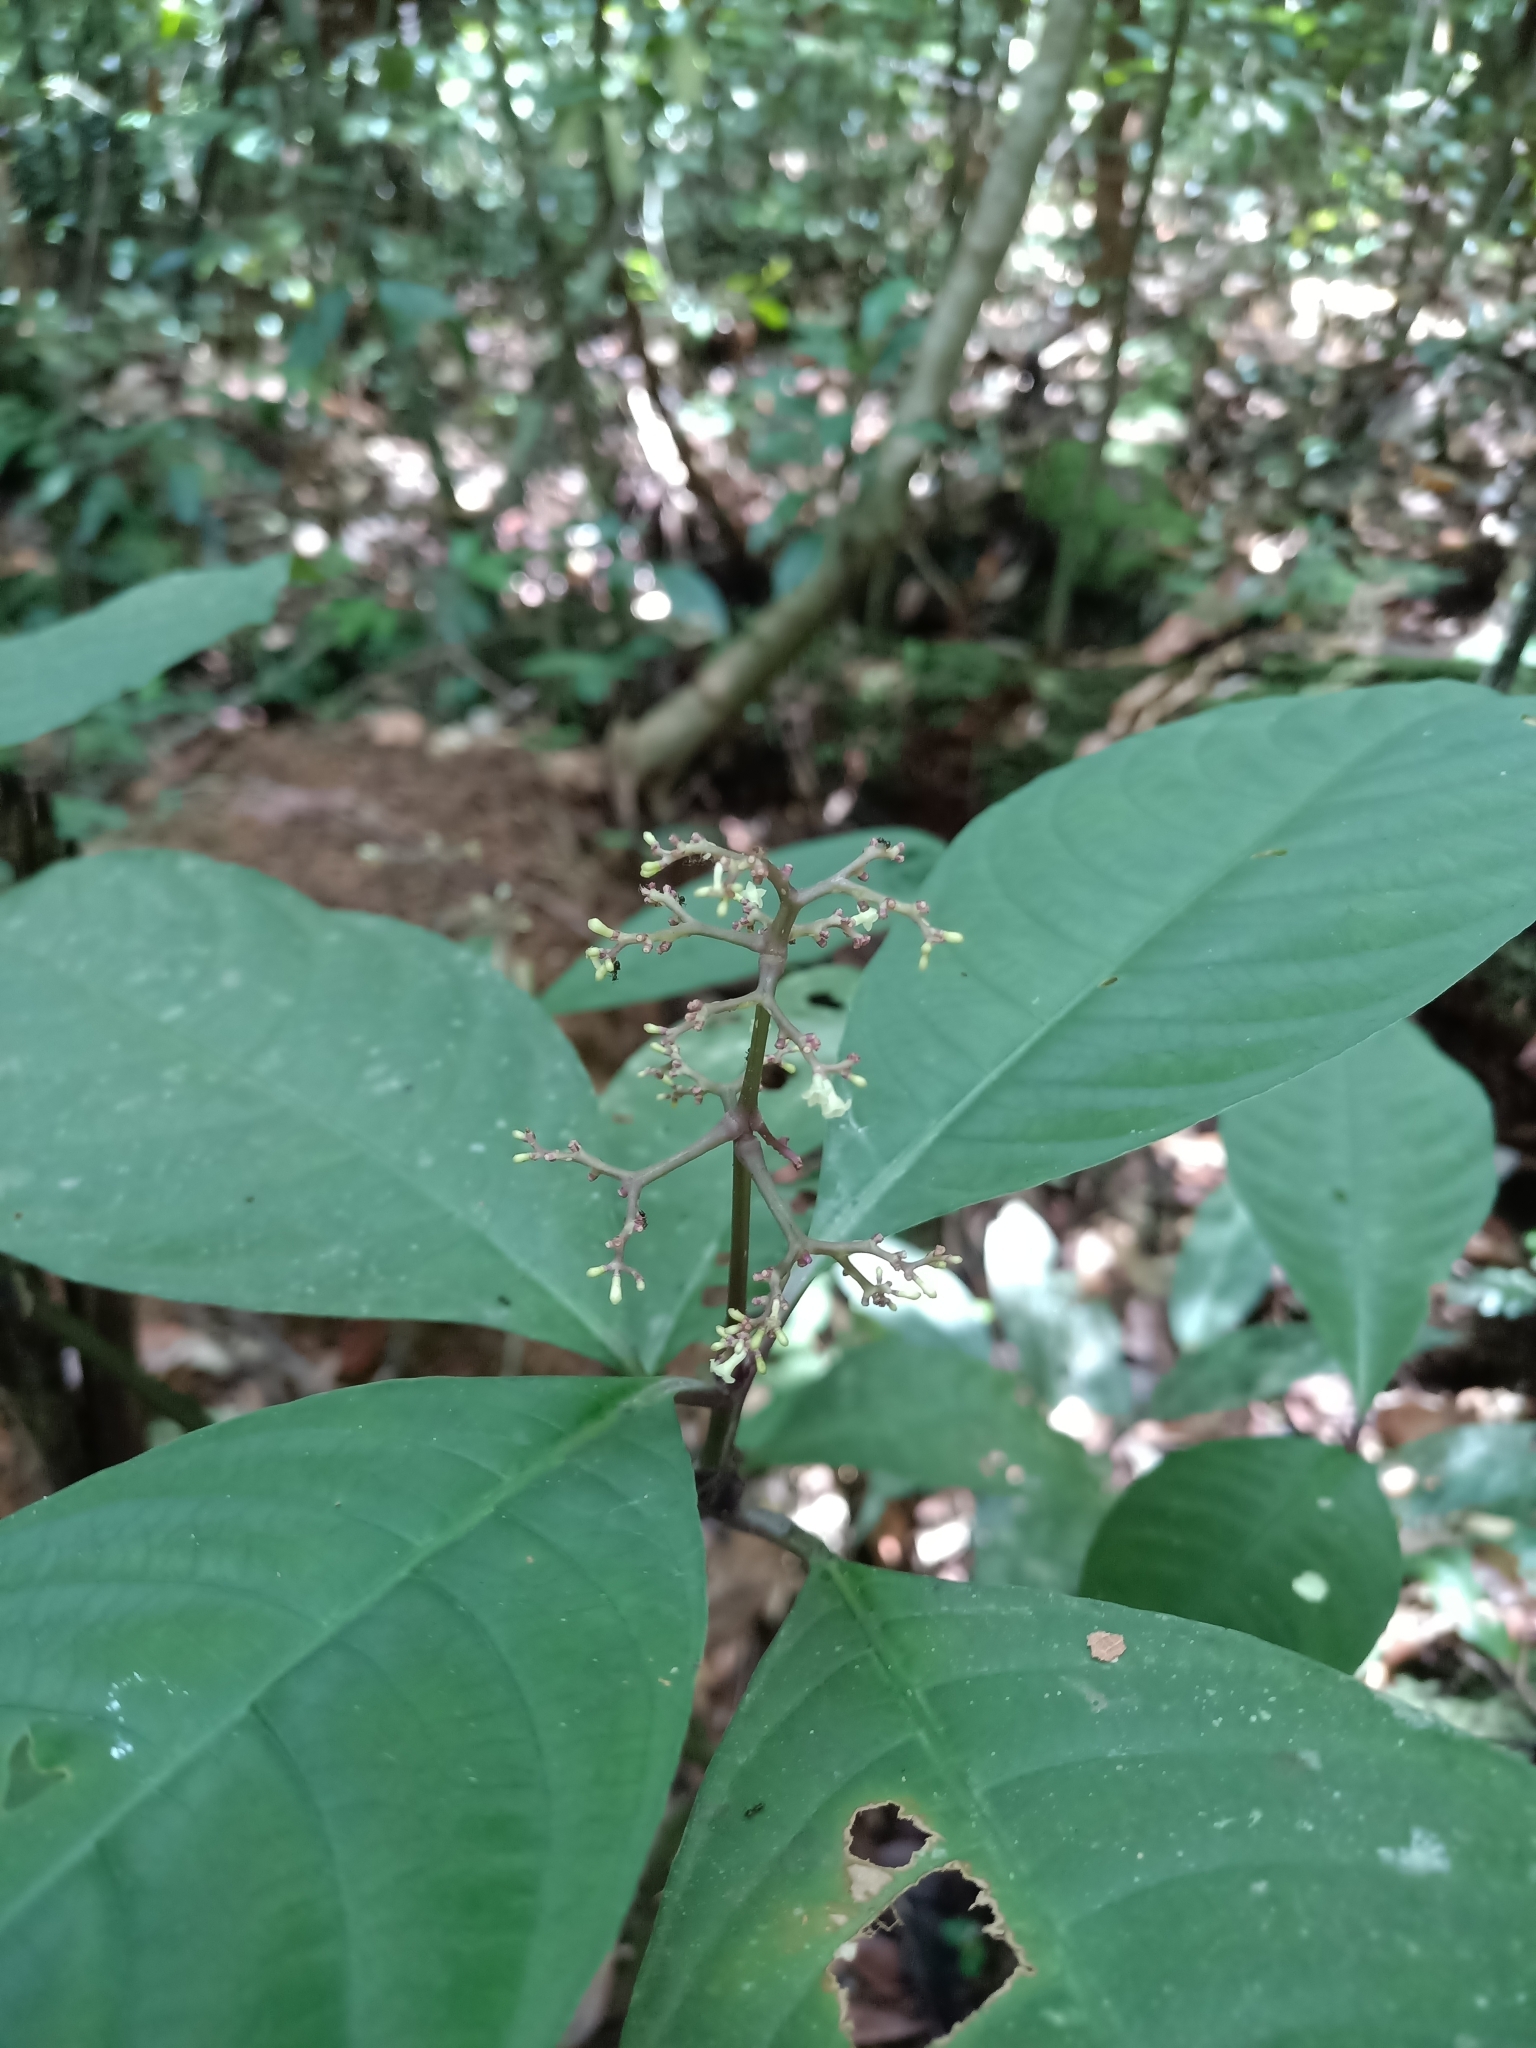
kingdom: Plantae
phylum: Tracheophyta
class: Magnoliopsida
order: Gentianales
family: Rubiaceae
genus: Palicourea
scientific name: Palicourea microbotrys
